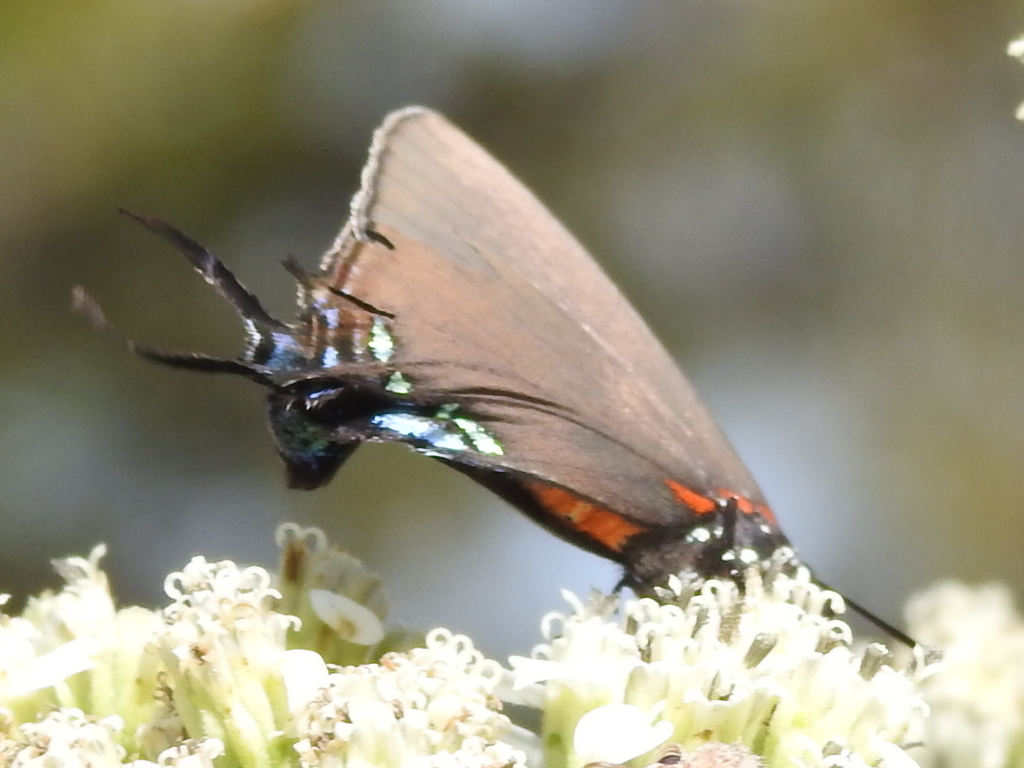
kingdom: Animalia
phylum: Arthropoda
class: Insecta
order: Lepidoptera
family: Lycaenidae
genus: Atlides
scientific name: Atlides halesus
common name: Great purple hairstreak
